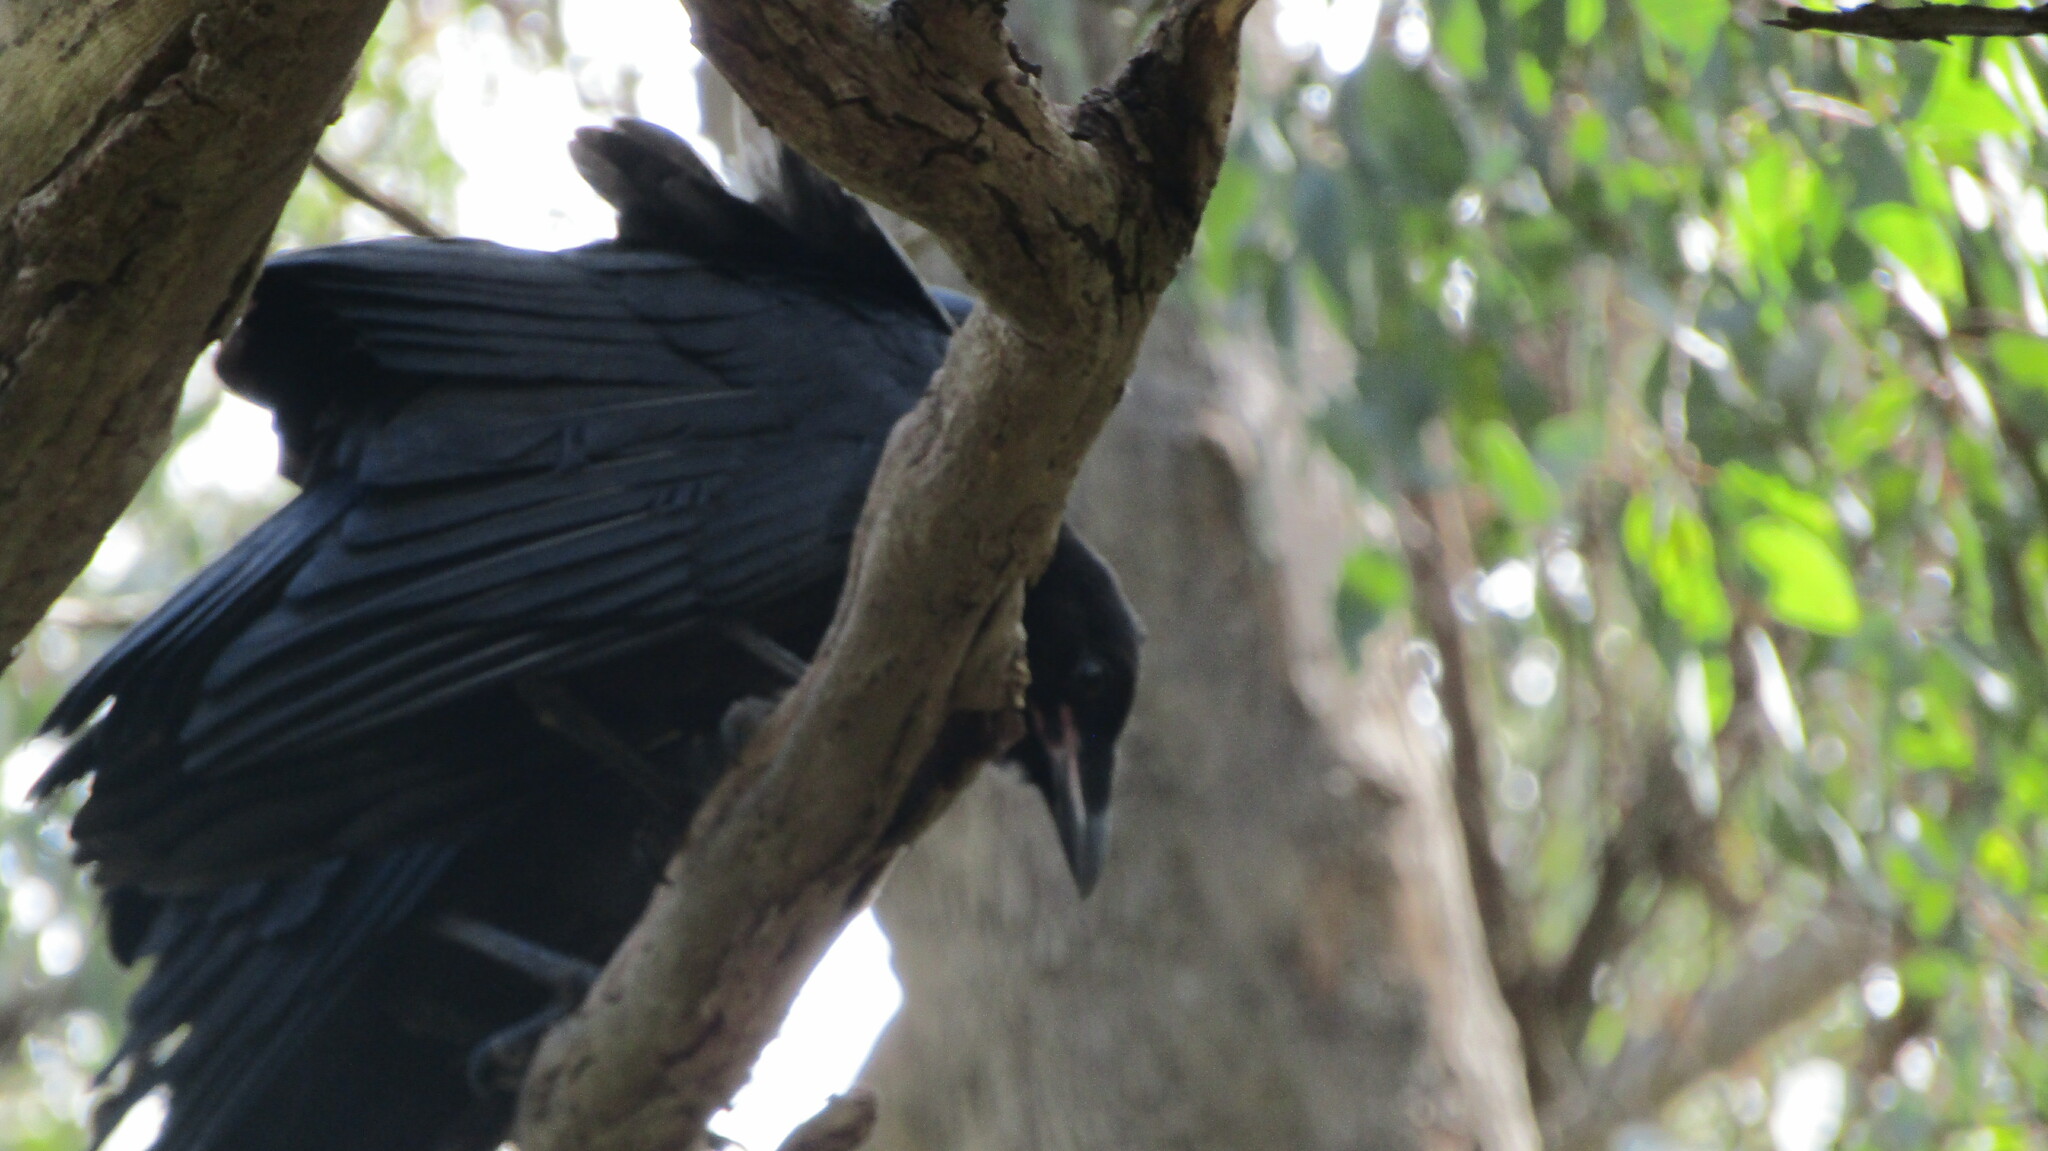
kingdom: Animalia
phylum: Chordata
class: Aves
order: Passeriformes
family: Corvidae
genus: Corvus
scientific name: Corvus coronoides
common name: Australian raven
